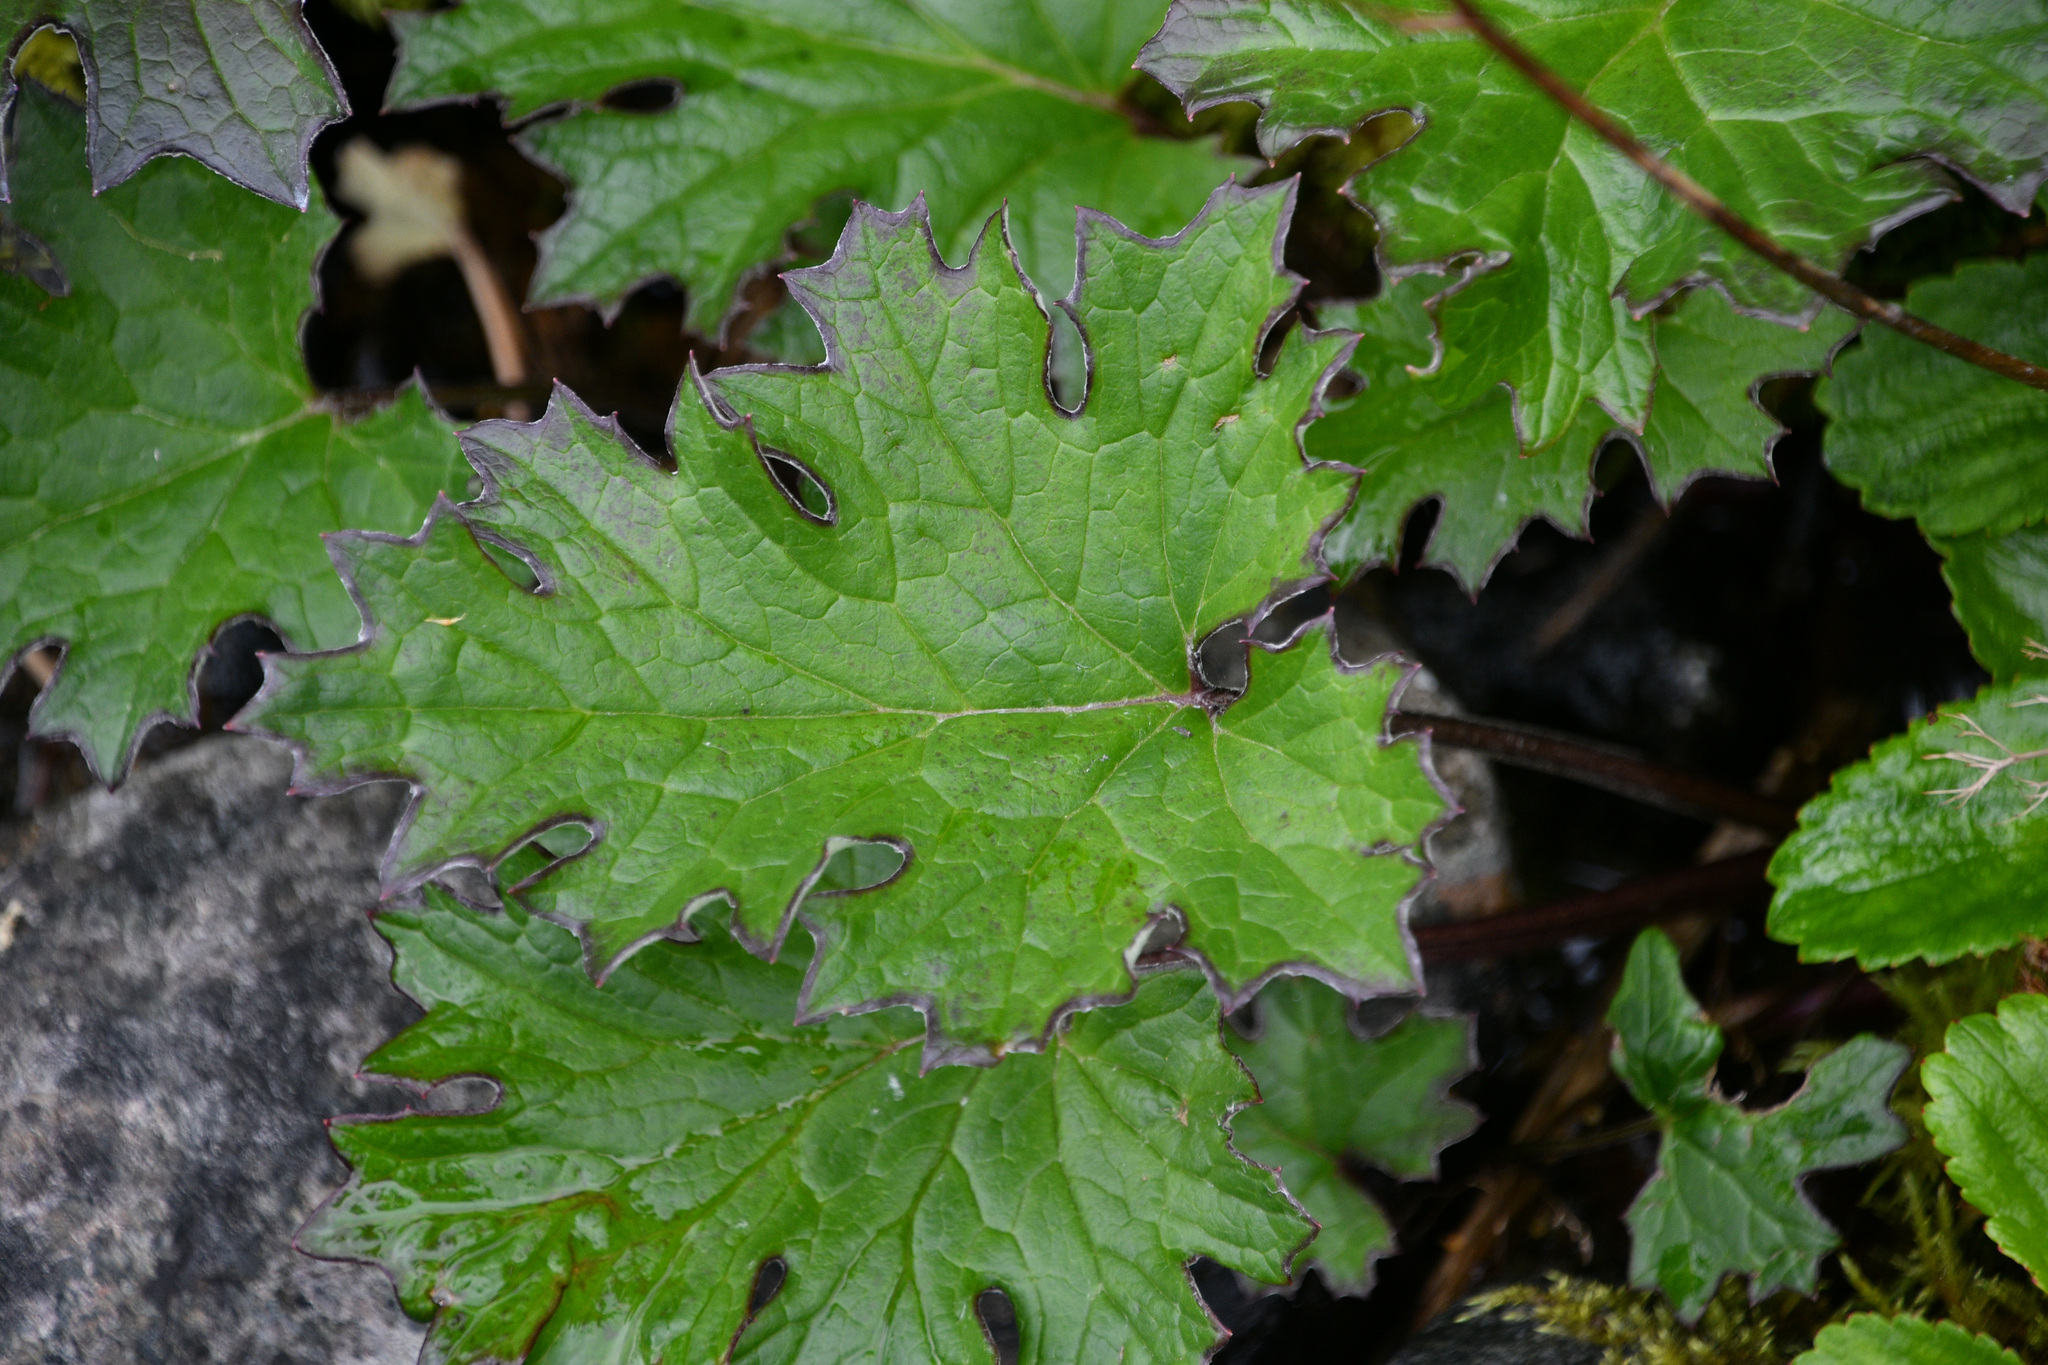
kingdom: Plantae
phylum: Tracheophyta
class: Magnoliopsida
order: Asterales
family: Asteraceae
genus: Petasites
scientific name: Petasites frigidus
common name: Arctic butterbur
